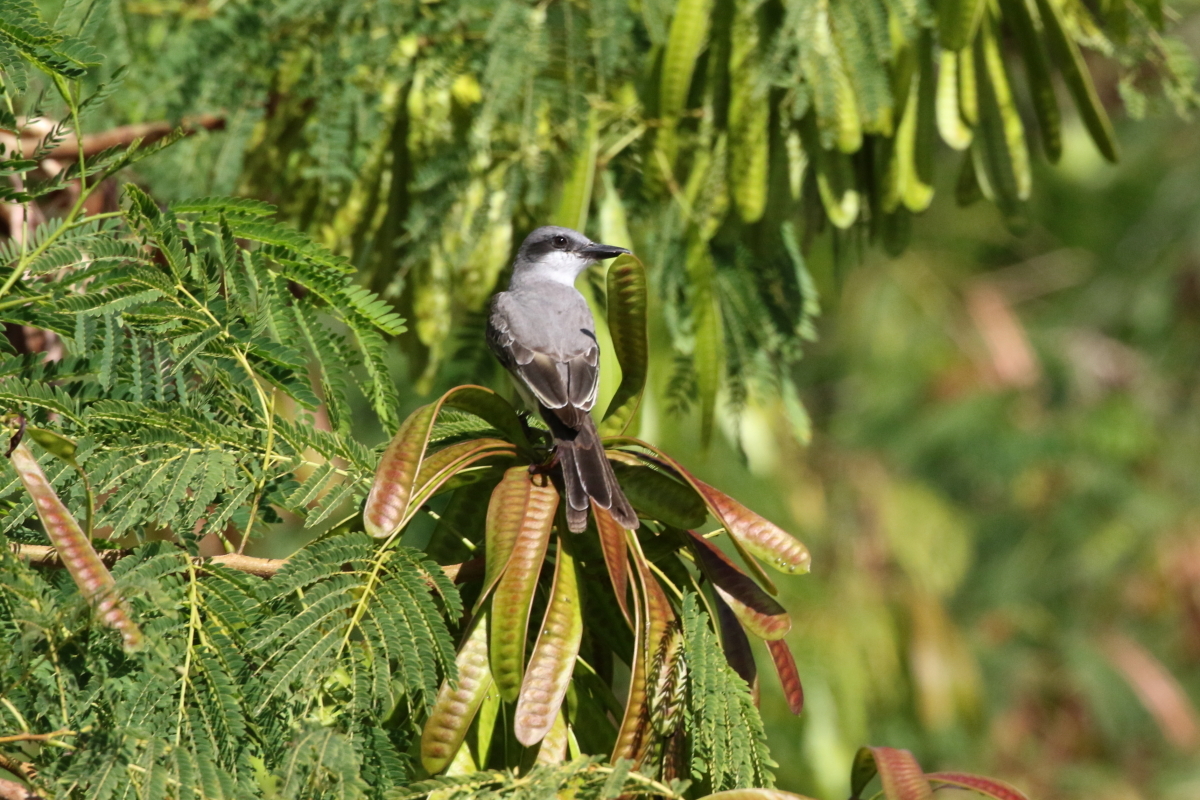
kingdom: Animalia
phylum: Chordata
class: Aves
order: Passeriformes
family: Tyrannidae
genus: Tyrannus
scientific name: Tyrannus dominicensis
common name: Gray kingbird
